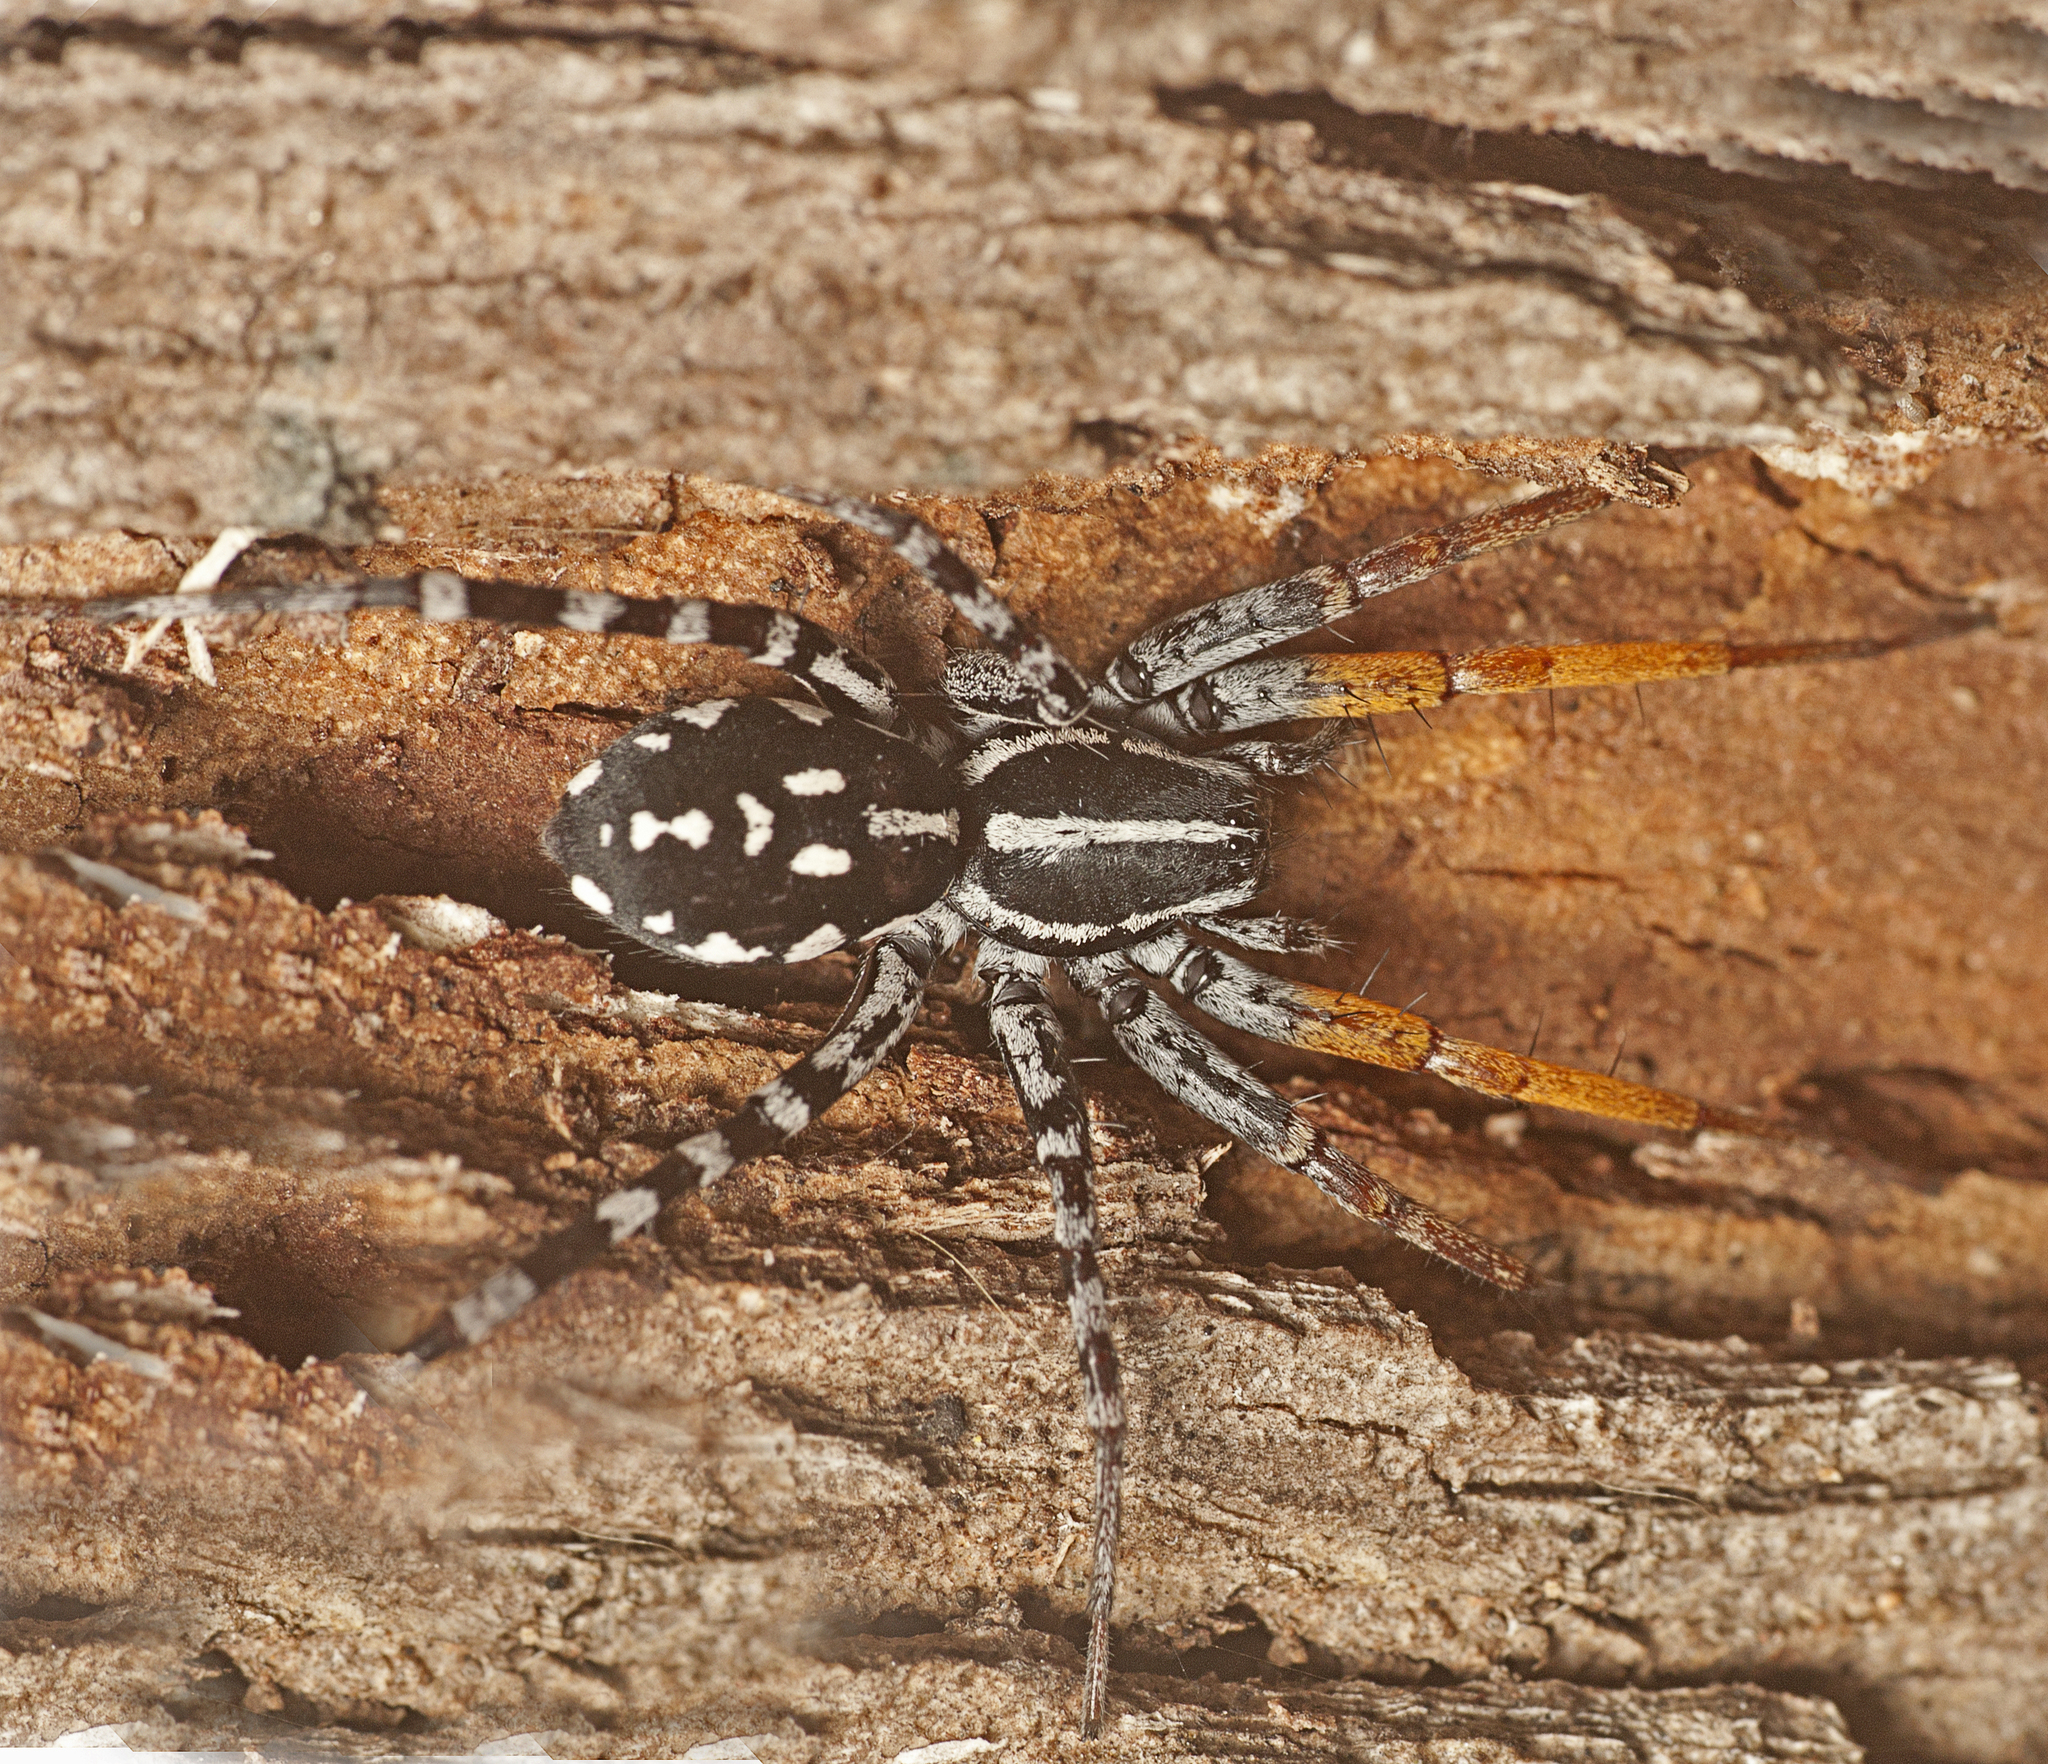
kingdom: Animalia
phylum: Arthropoda
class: Arachnida
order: Araneae
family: Corinnidae
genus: Nyssus
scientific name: Nyssus coloripes
